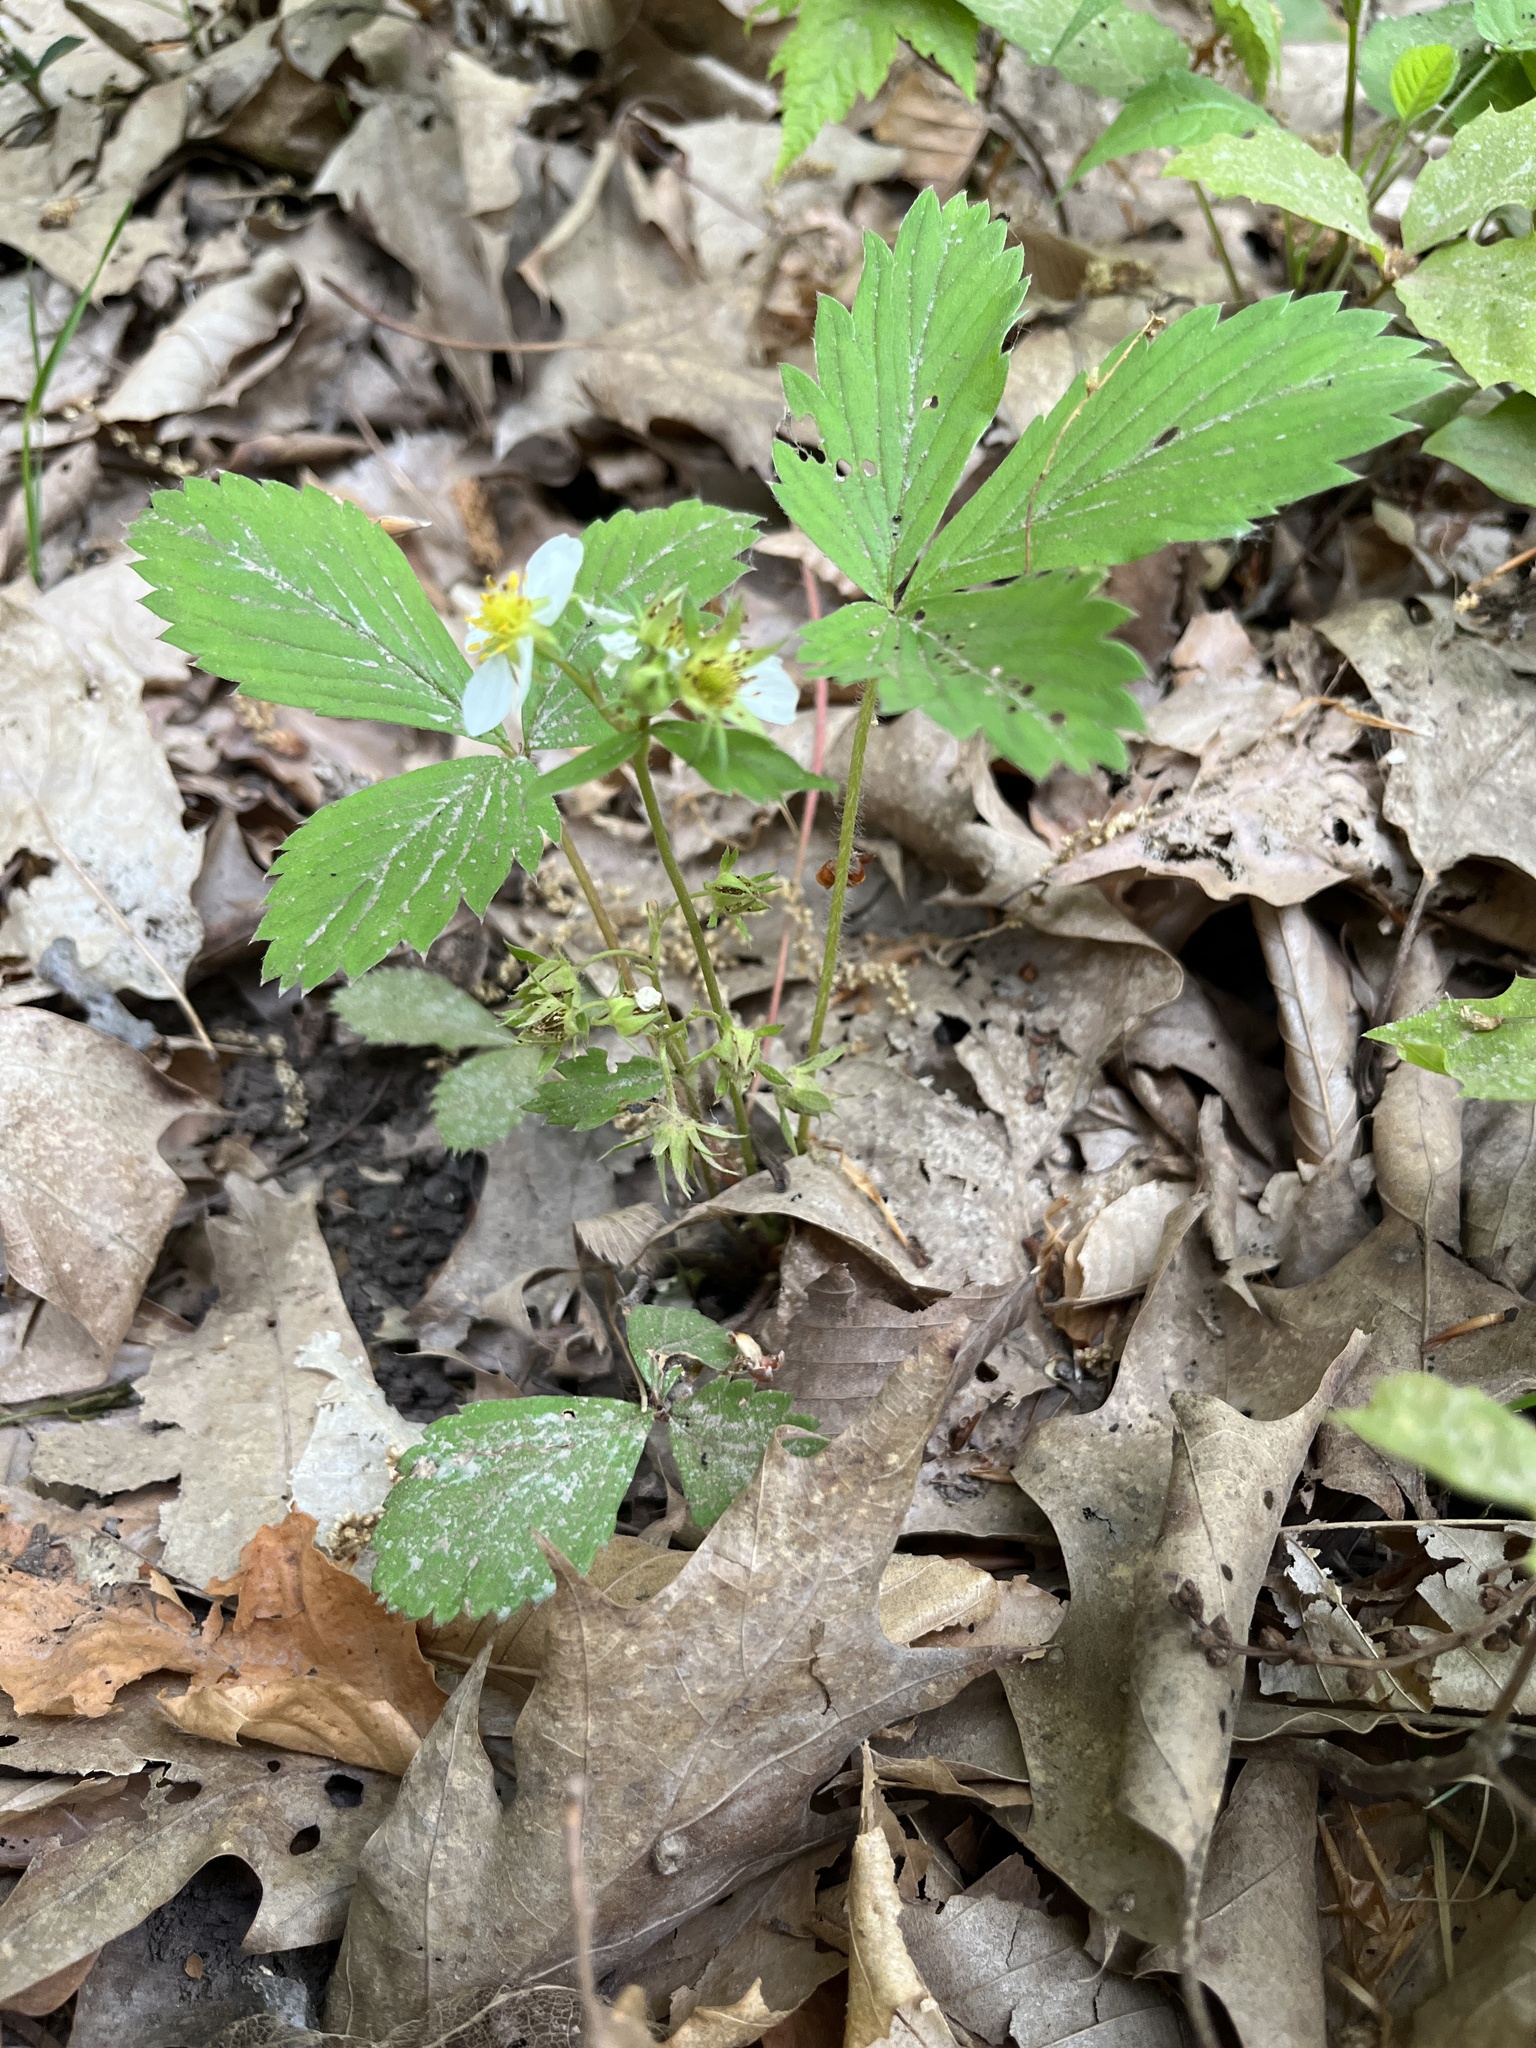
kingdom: Plantae
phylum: Tracheophyta
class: Magnoliopsida
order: Rosales
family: Rosaceae
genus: Fragaria
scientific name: Fragaria virginiana
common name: Thickleaved wild strawberry
